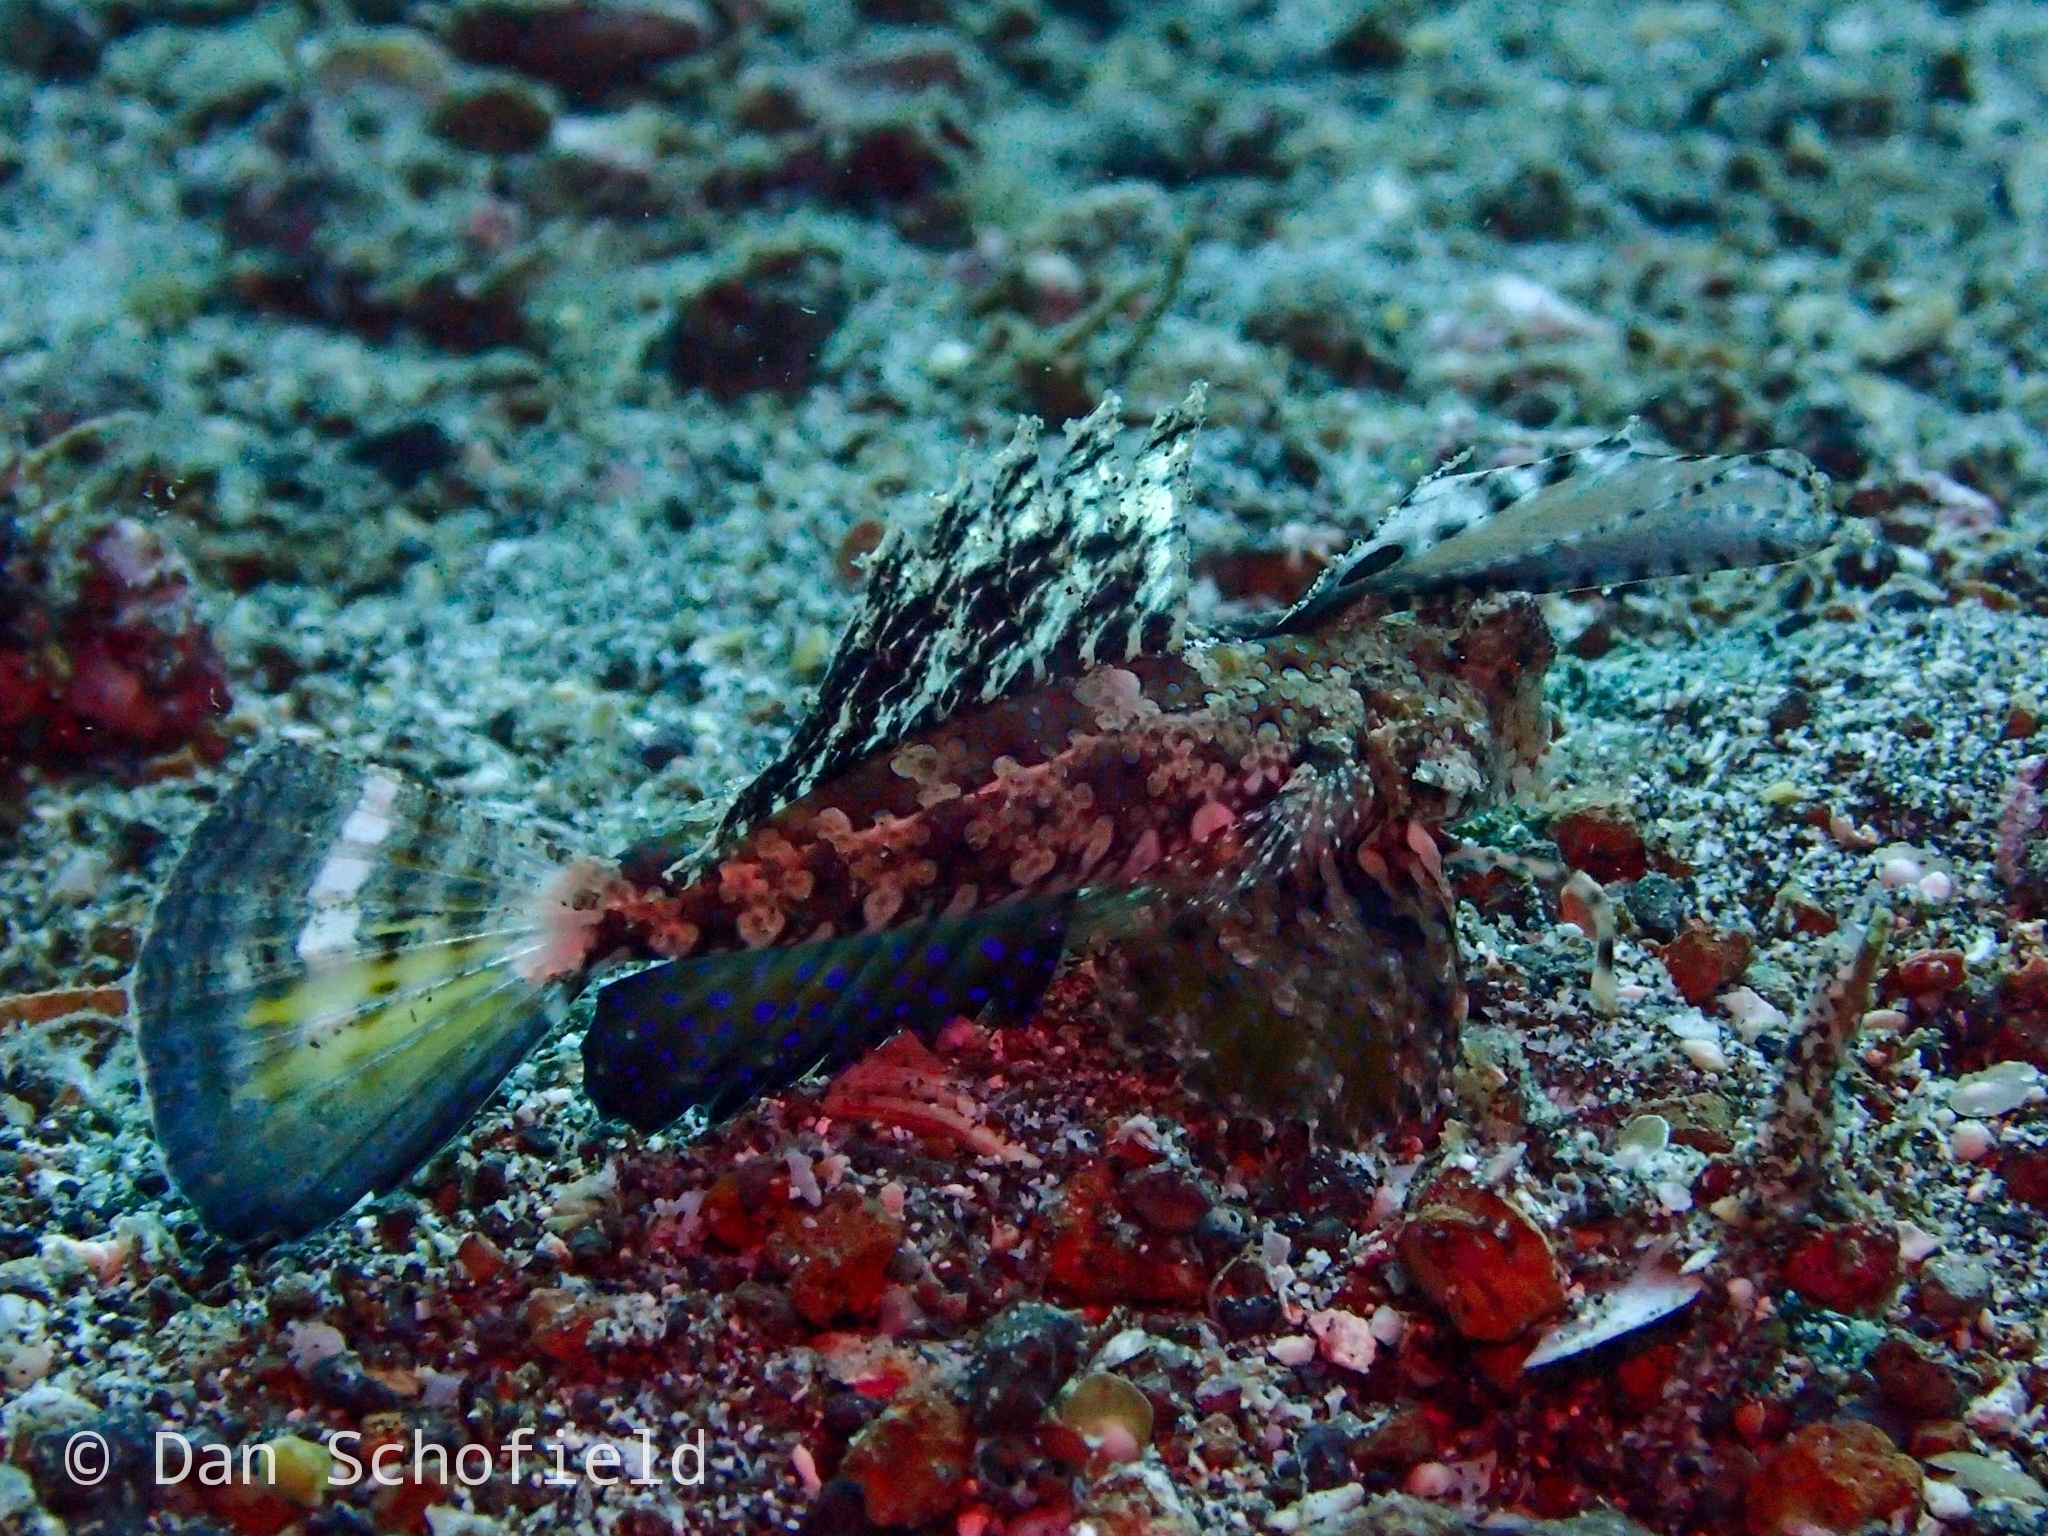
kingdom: Animalia
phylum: Chordata
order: Perciformes
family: Callionymidae
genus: Dactylopus
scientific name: Dactylopus kuiteri
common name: Kuiter's dragonet
